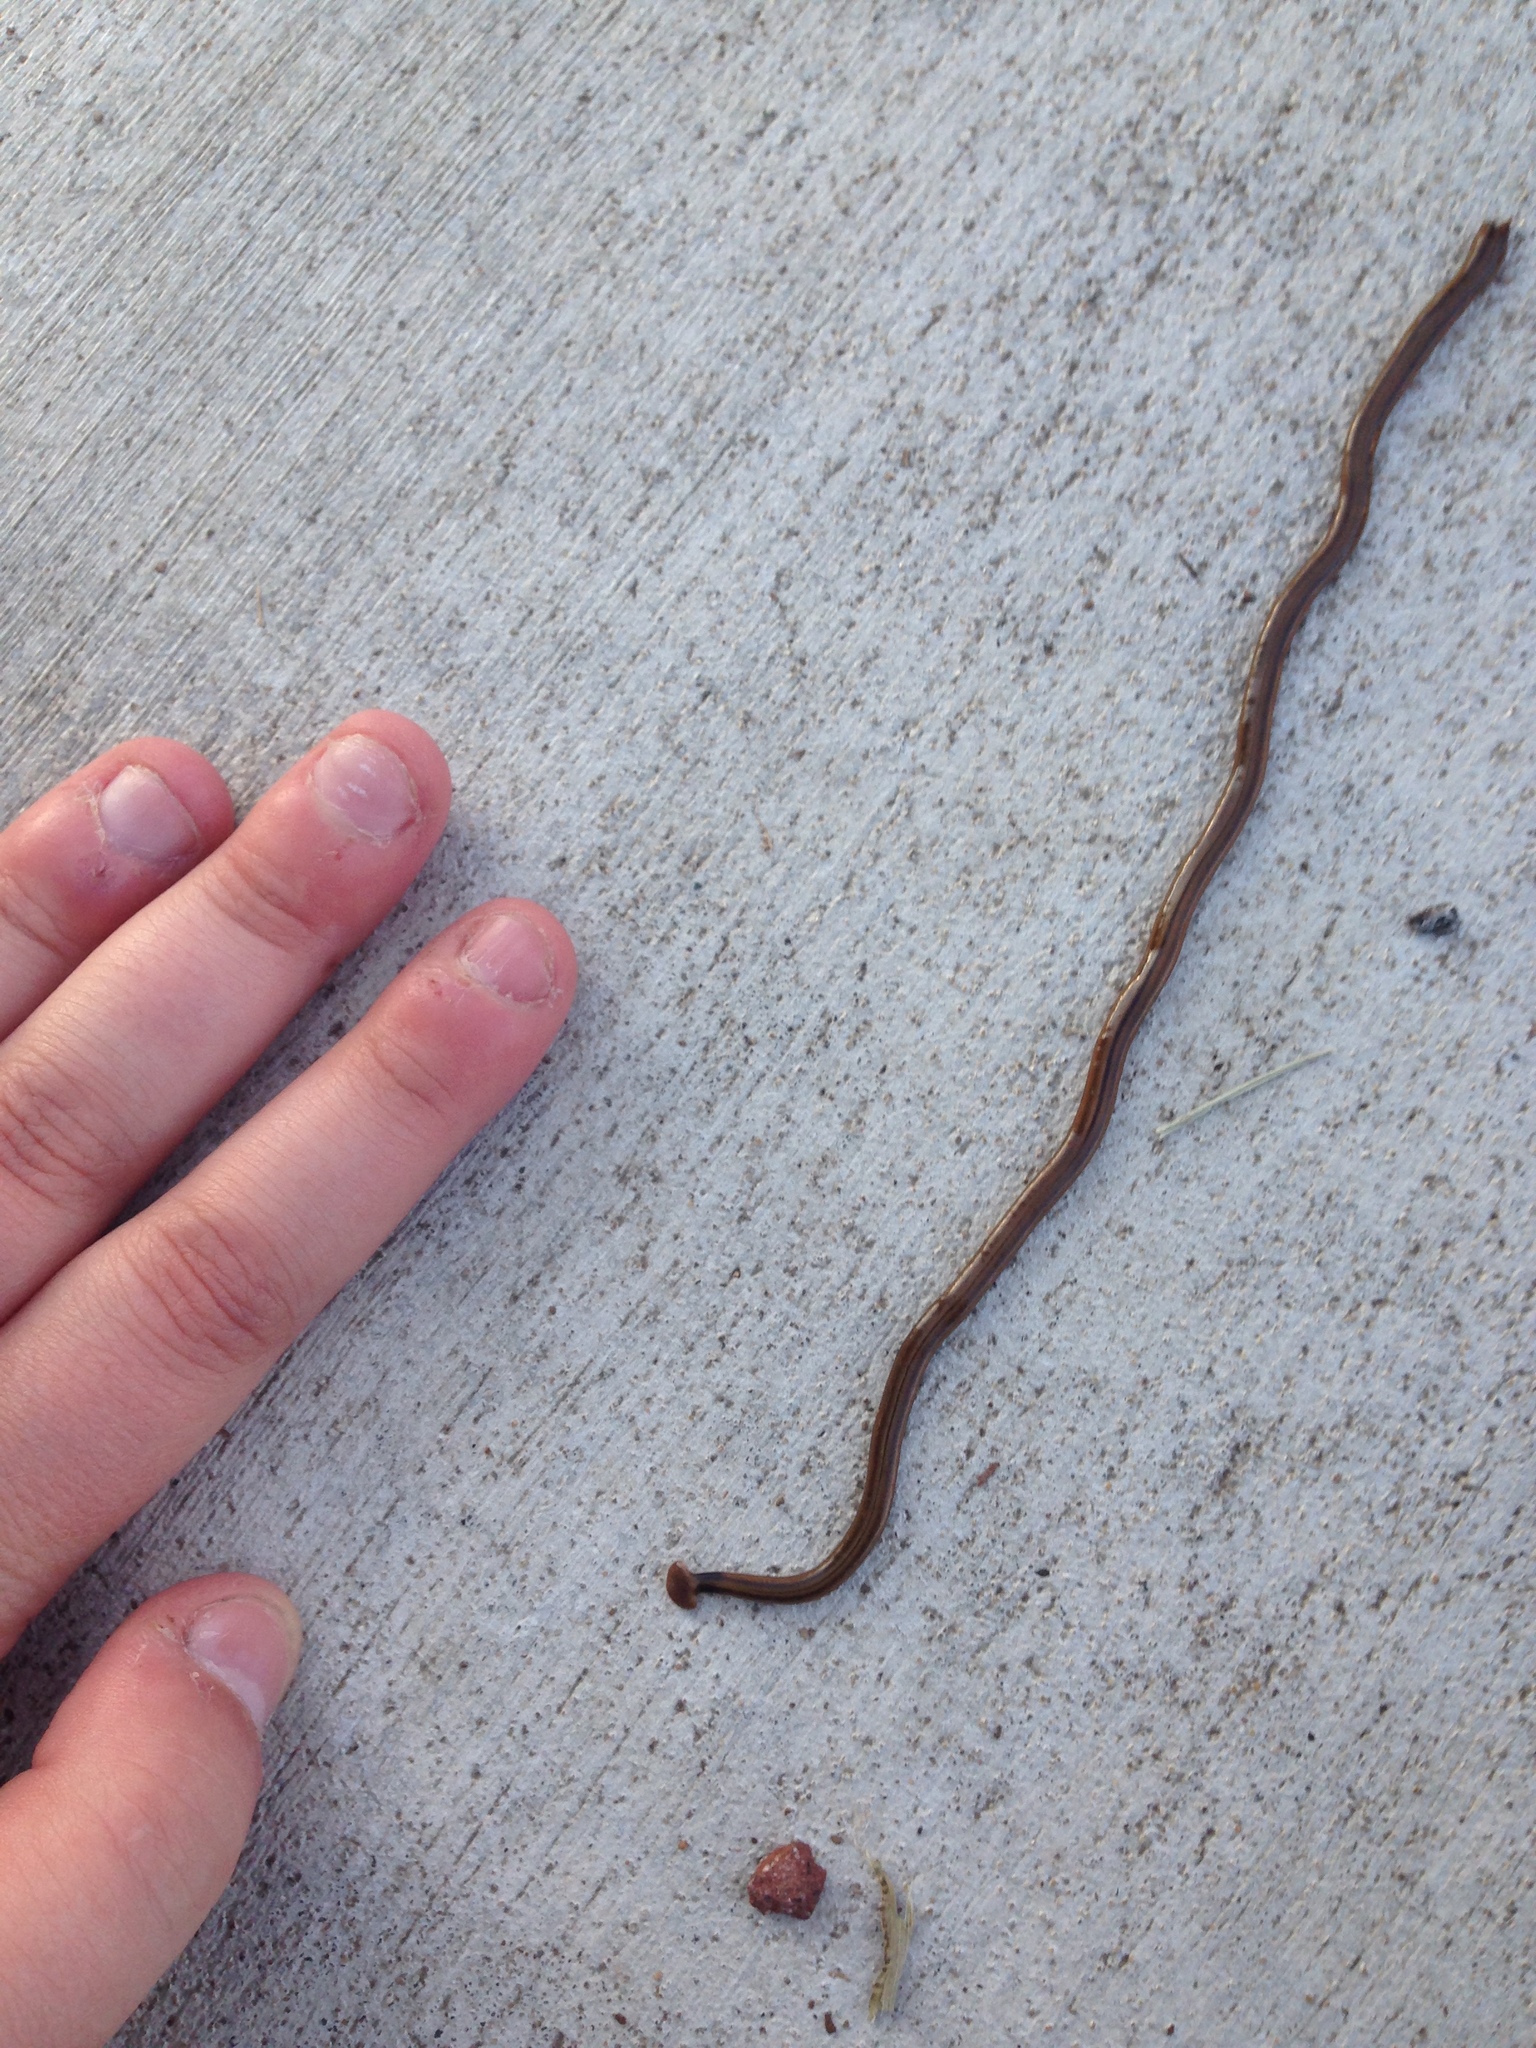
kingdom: Animalia
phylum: Platyhelminthes
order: Tricladida
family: Geoplanidae
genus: Bipalium
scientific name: Bipalium kewense
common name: Hammerhead flatworm
